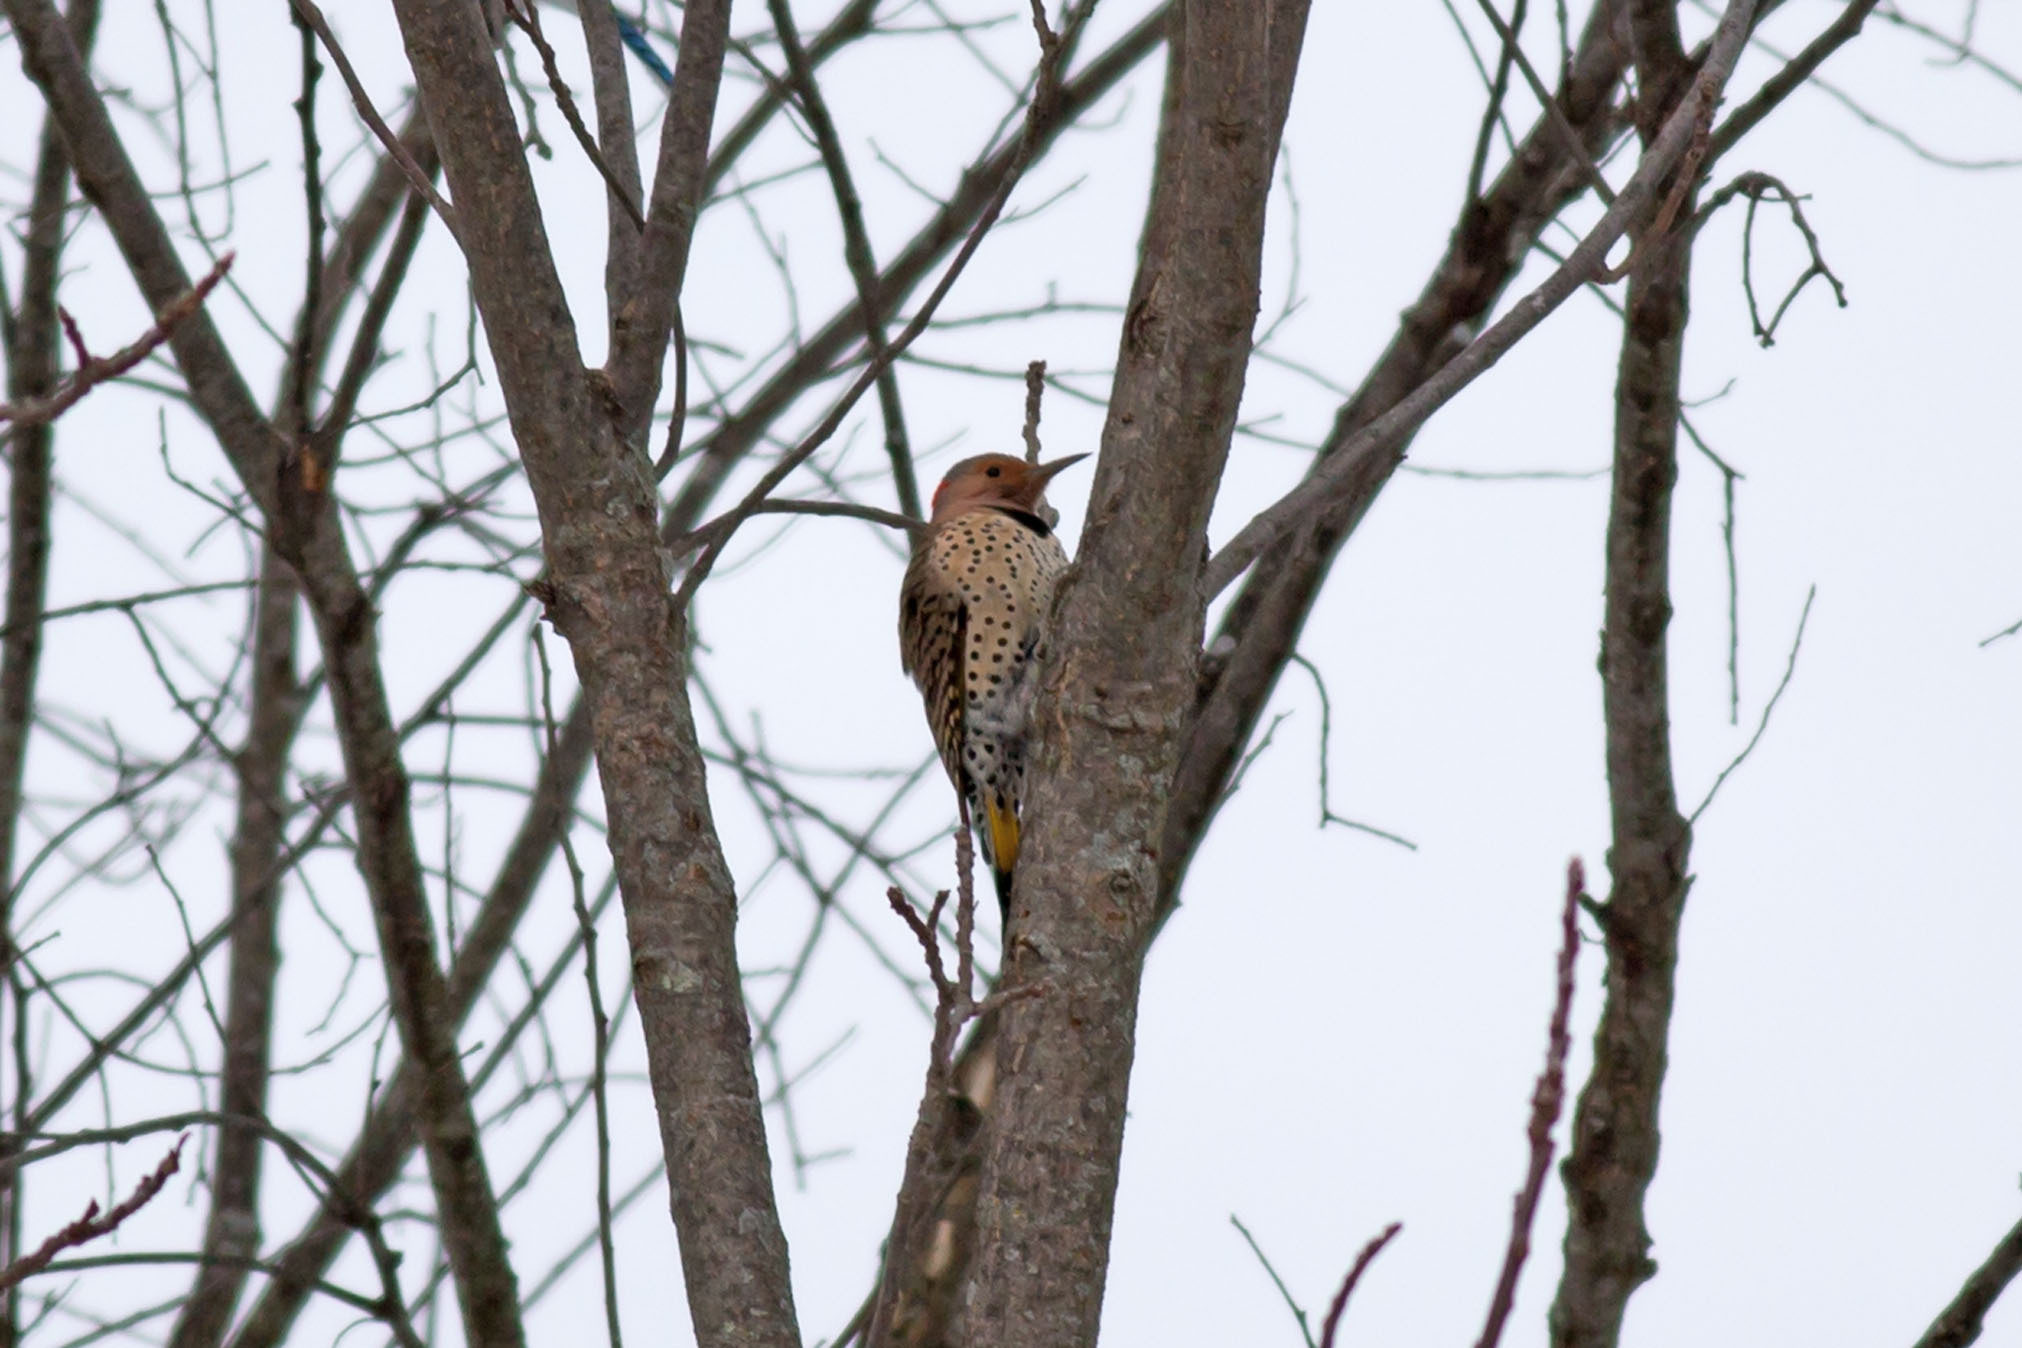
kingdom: Animalia
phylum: Chordata
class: Aves
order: Piciformes
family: Picidae
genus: Colaptes
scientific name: Colaptes auratus
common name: Northern flicker
